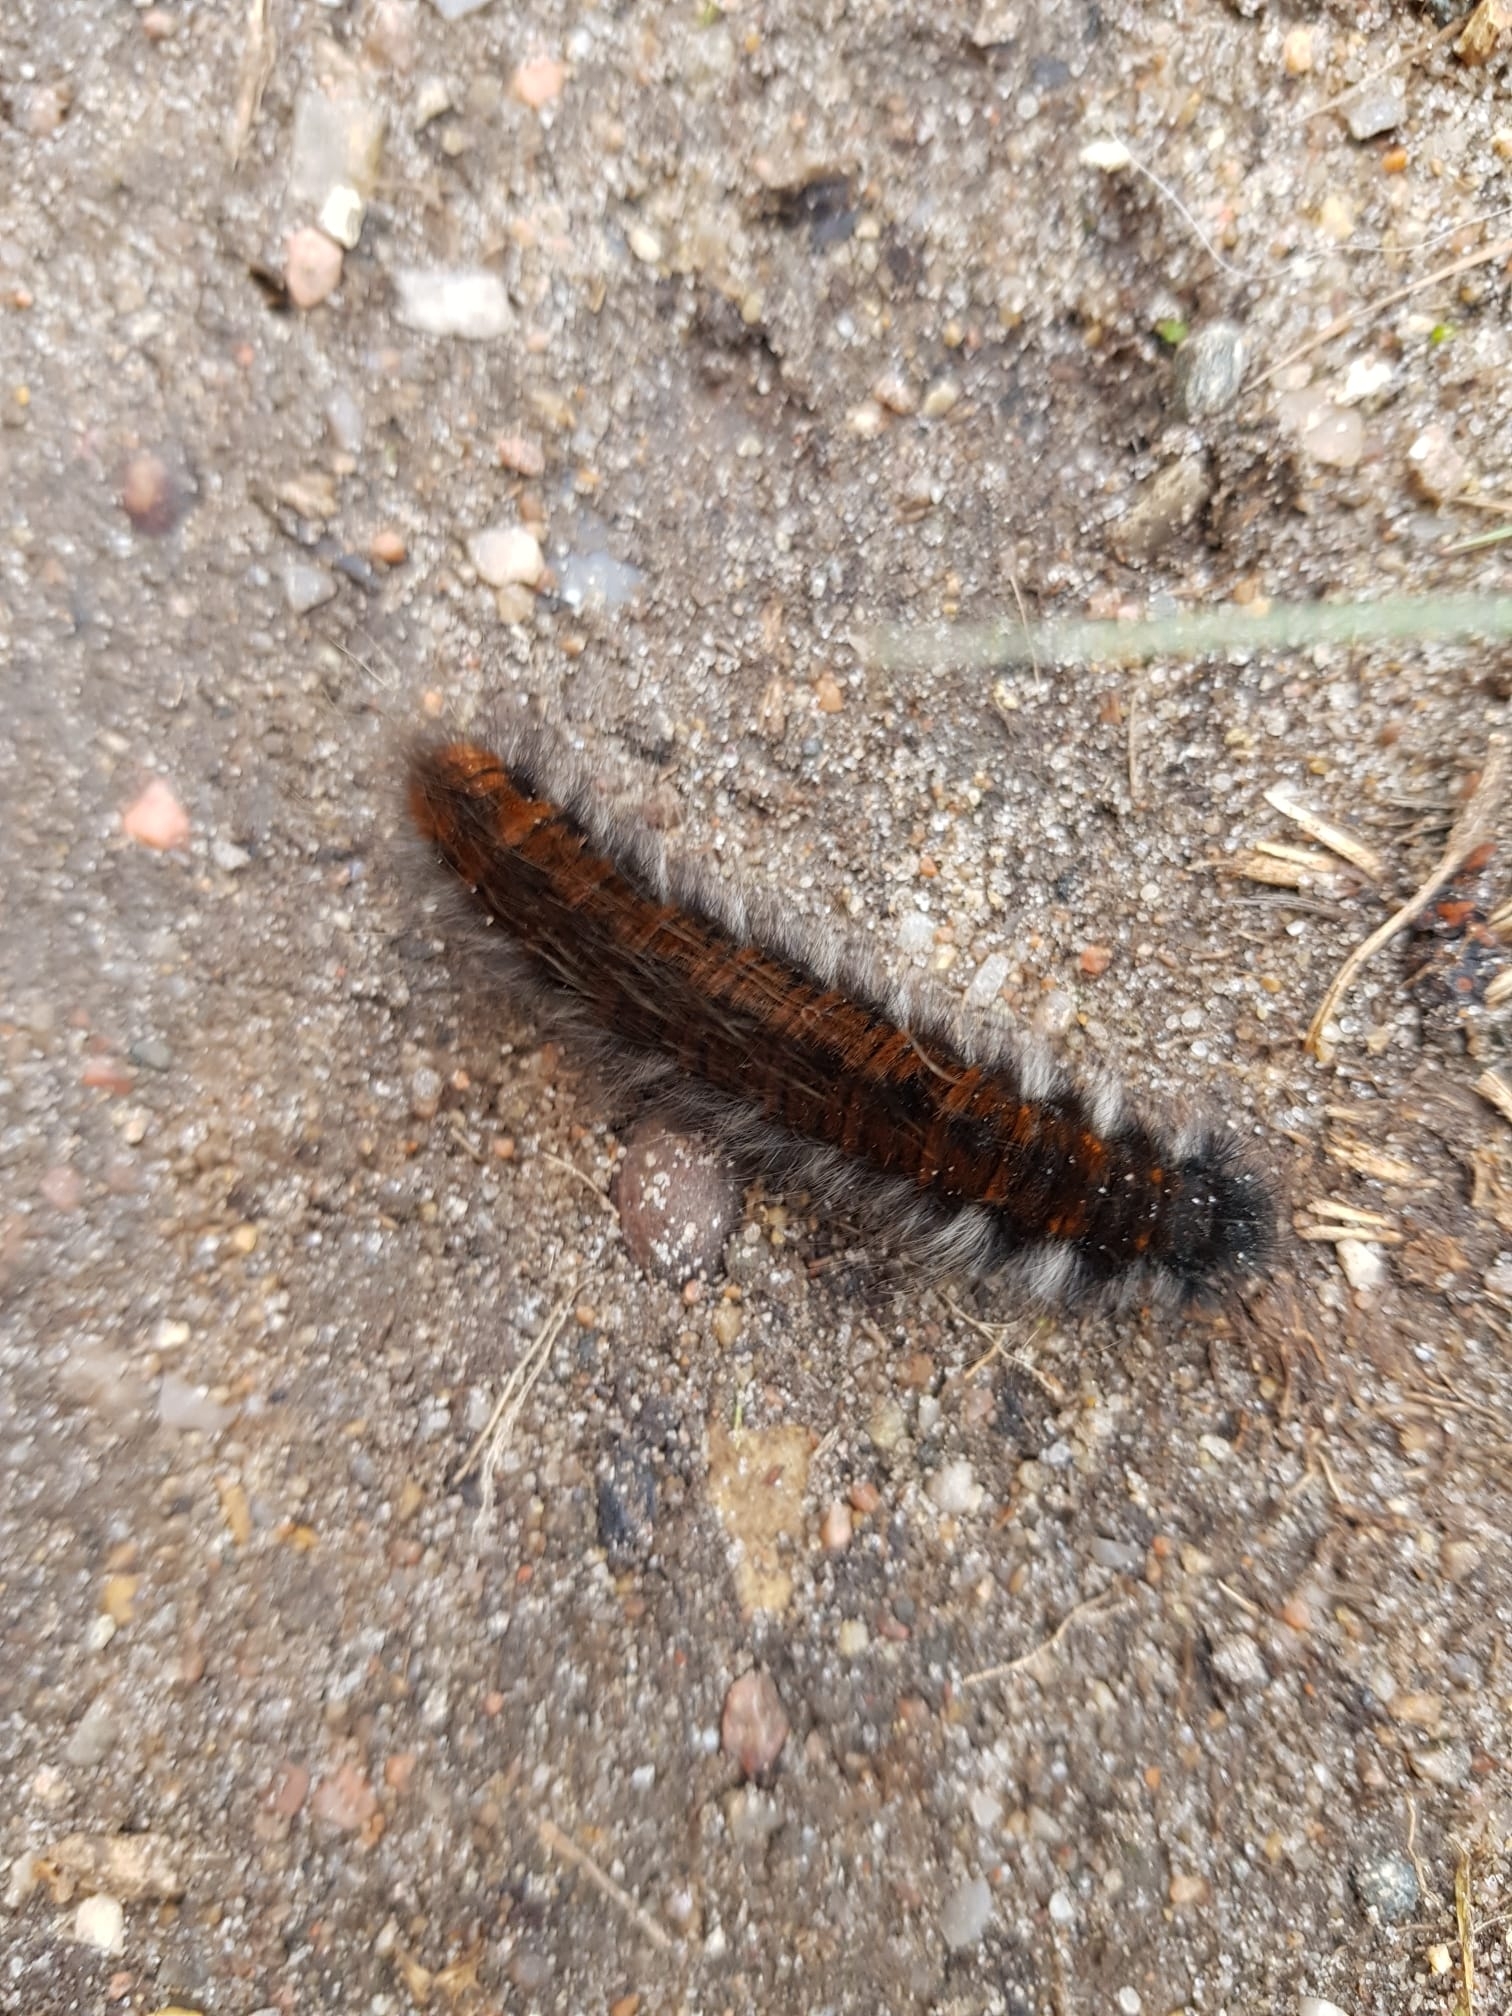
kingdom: Animalia
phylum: Arthropoda
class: Insecta
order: Lepidoptera
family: Lasiocampidae
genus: Macrothylacia
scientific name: Macrothylacia rubi
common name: Fox moth
